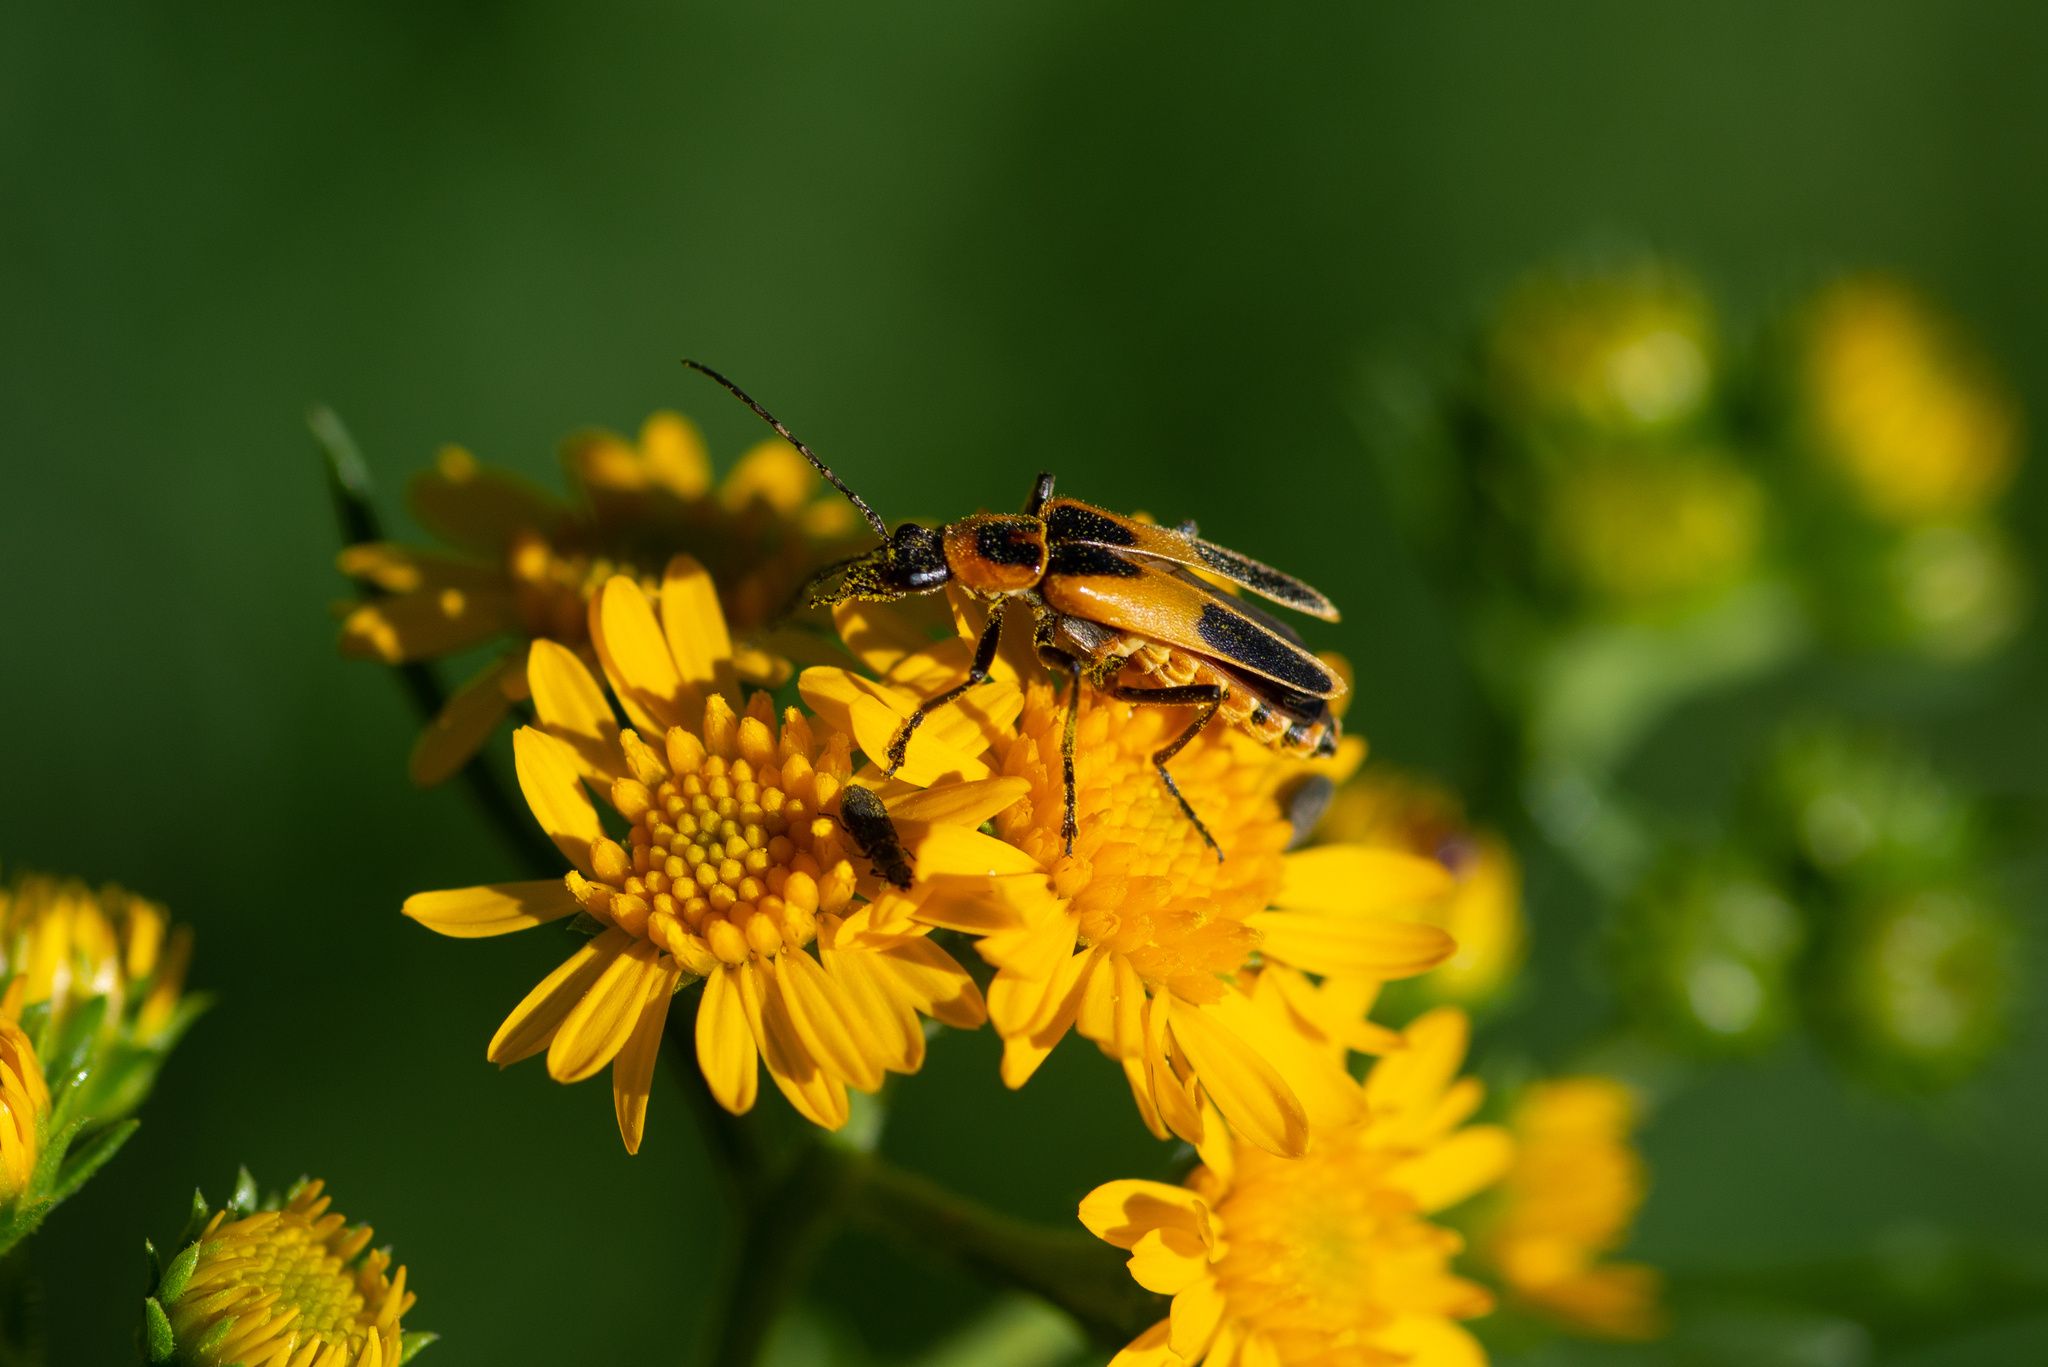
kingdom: Animalia
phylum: Arthropoda
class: Insecta
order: Coleoptera
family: Cantharidae
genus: Chauliognathus
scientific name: Chauliognathus omissus
